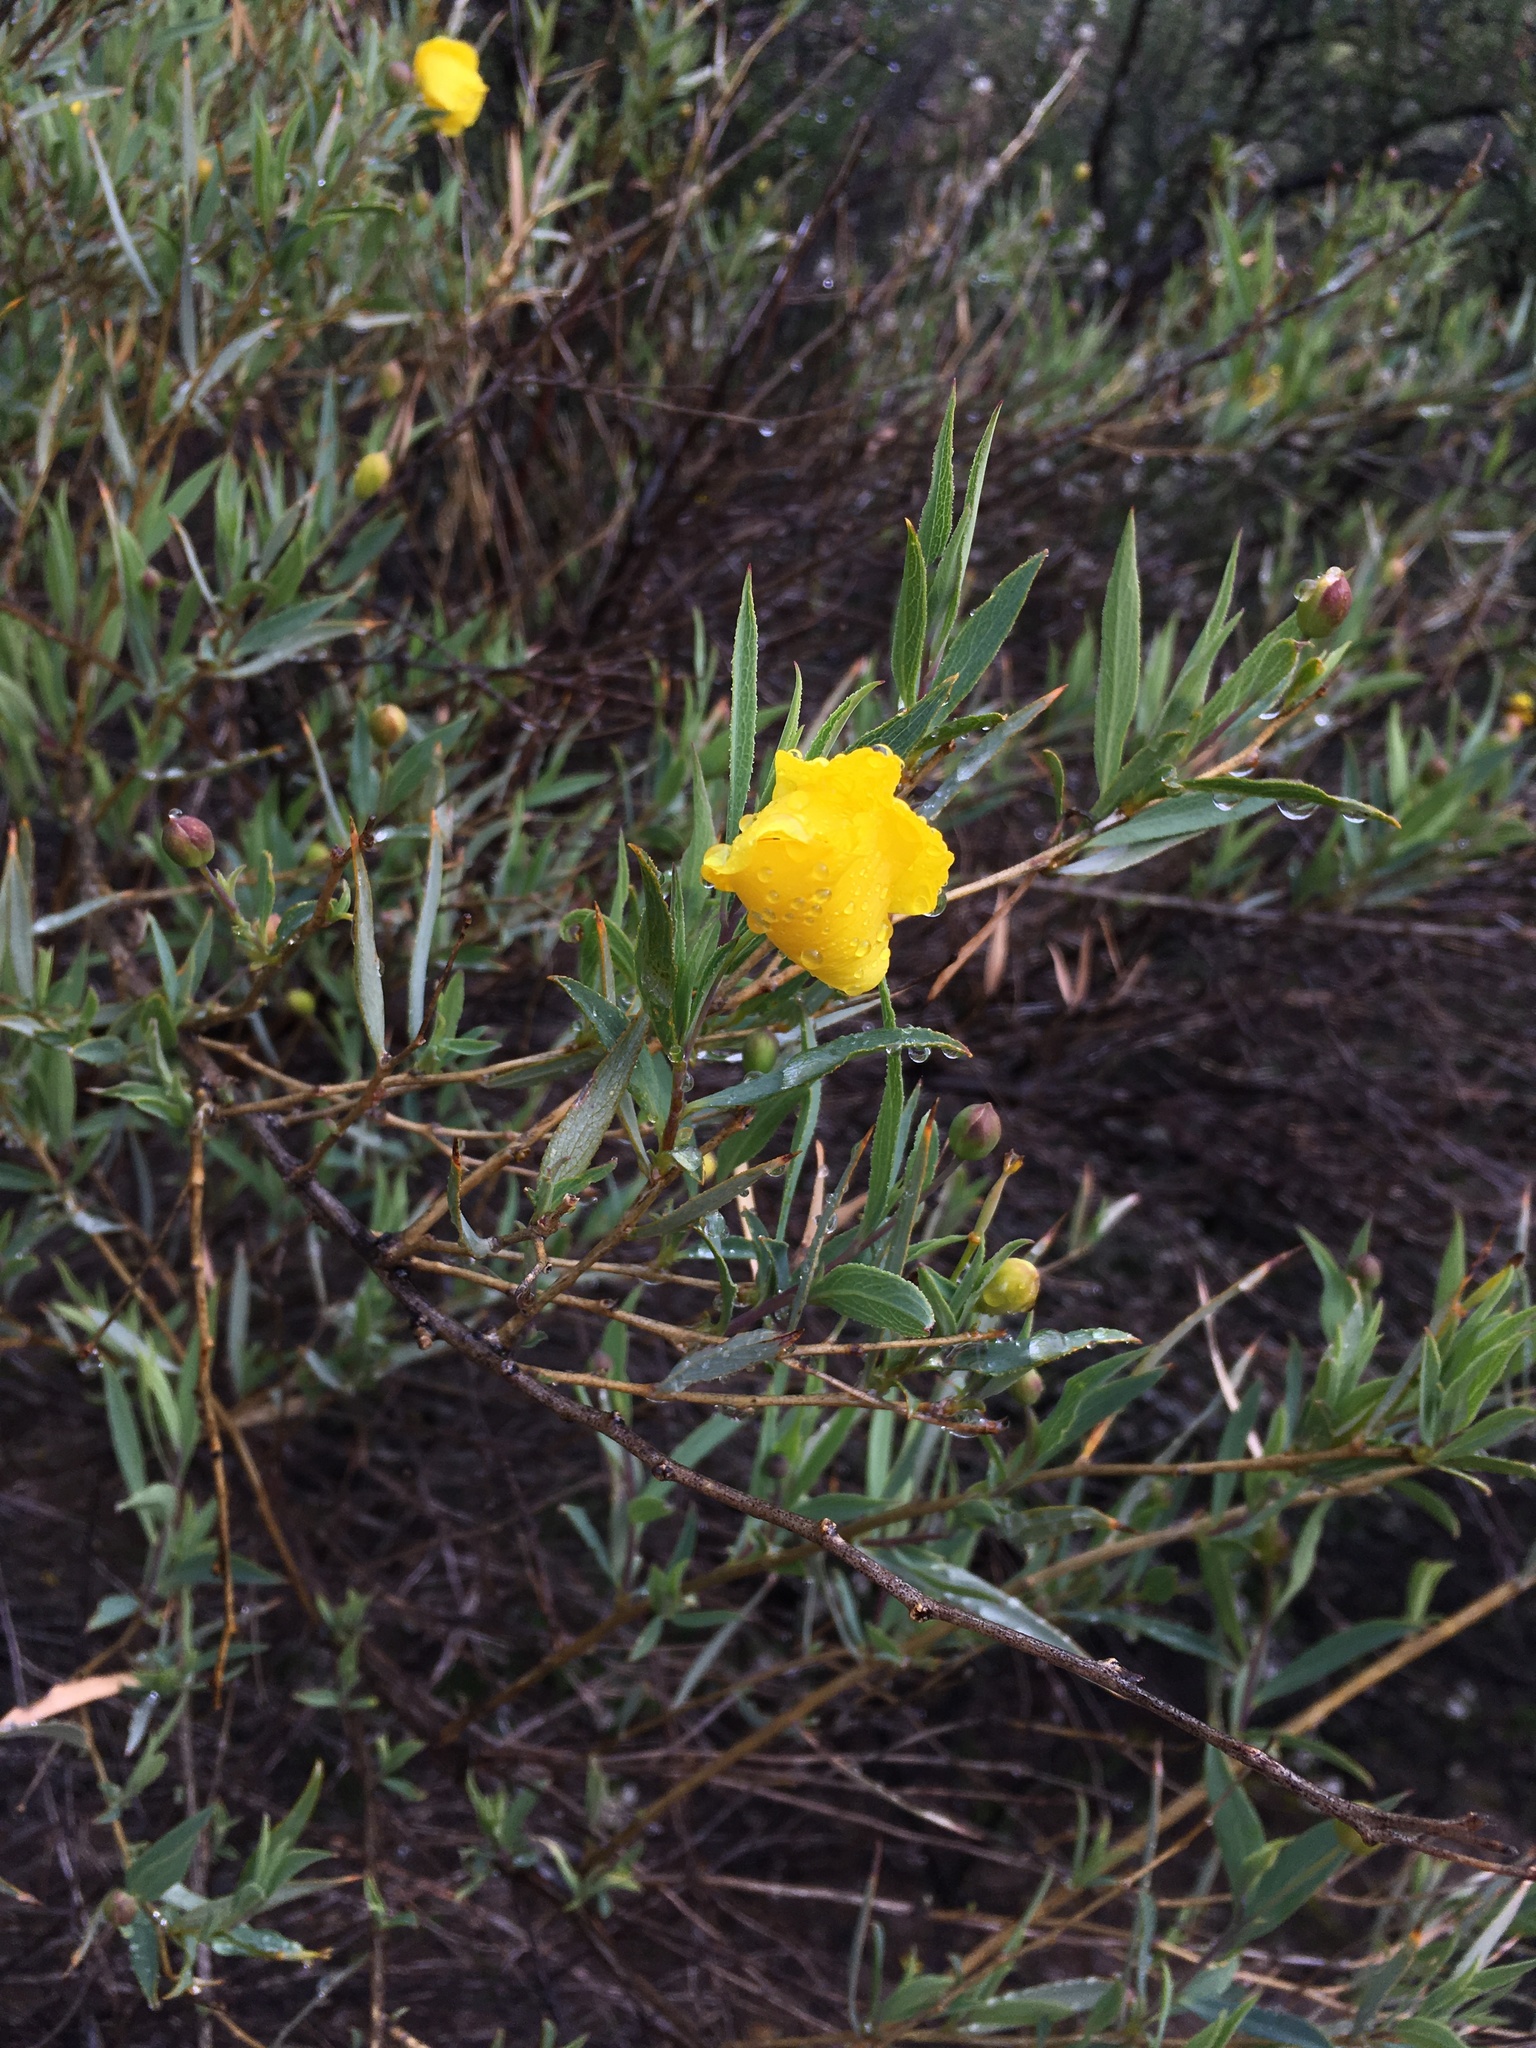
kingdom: Plantae
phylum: Tracheophyta
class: Magnoliopsida
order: Ranunculales
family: Papaveraceae
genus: Dendromecon
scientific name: Dendromecon rigida
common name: Tree poppy
